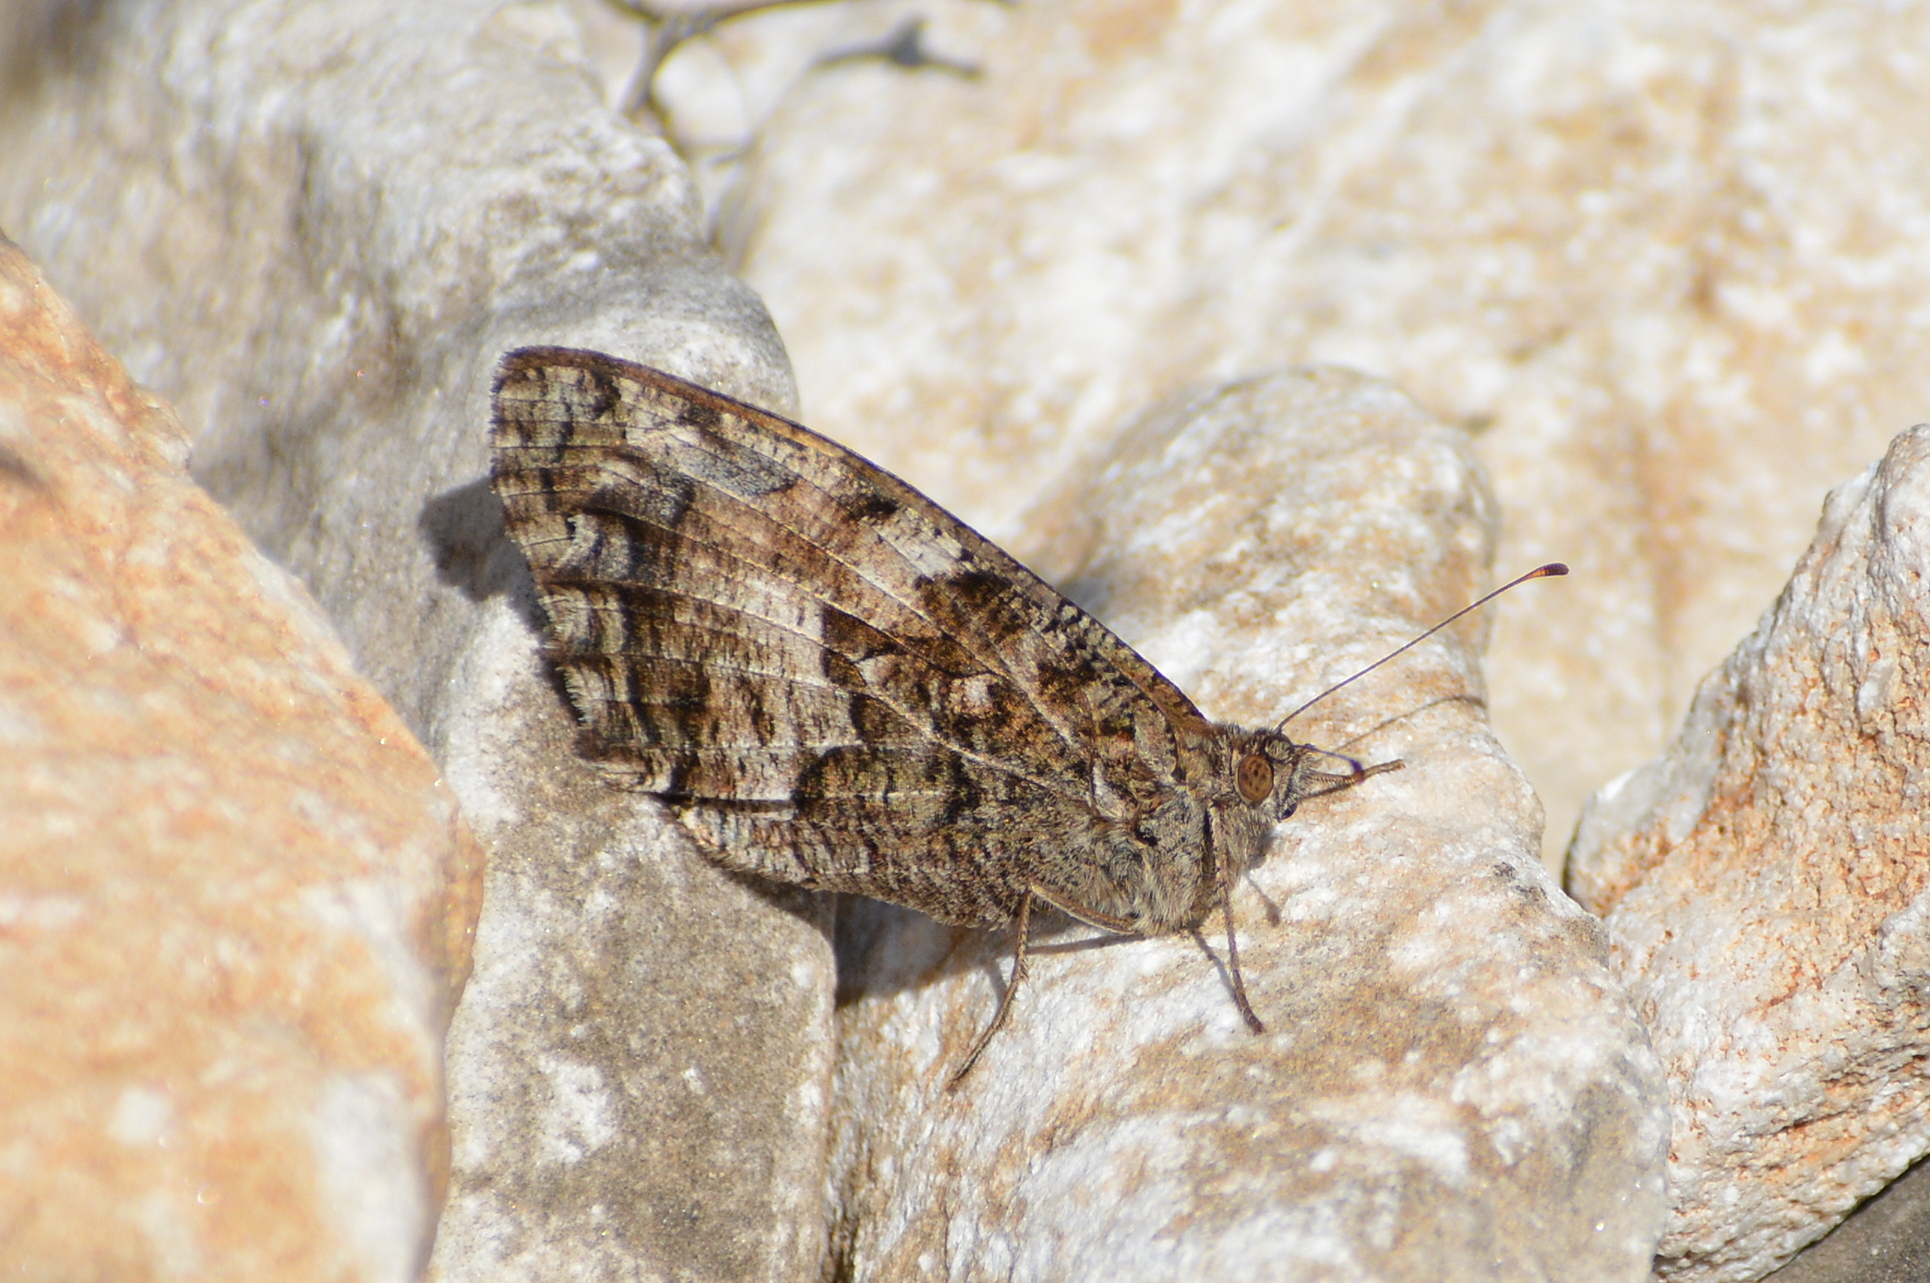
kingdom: Animalia
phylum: Arthropoda
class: Insecta
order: Lepidoptera
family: Nymphalidae
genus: Hipparchia
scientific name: Hipparchia semele
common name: Grayling
